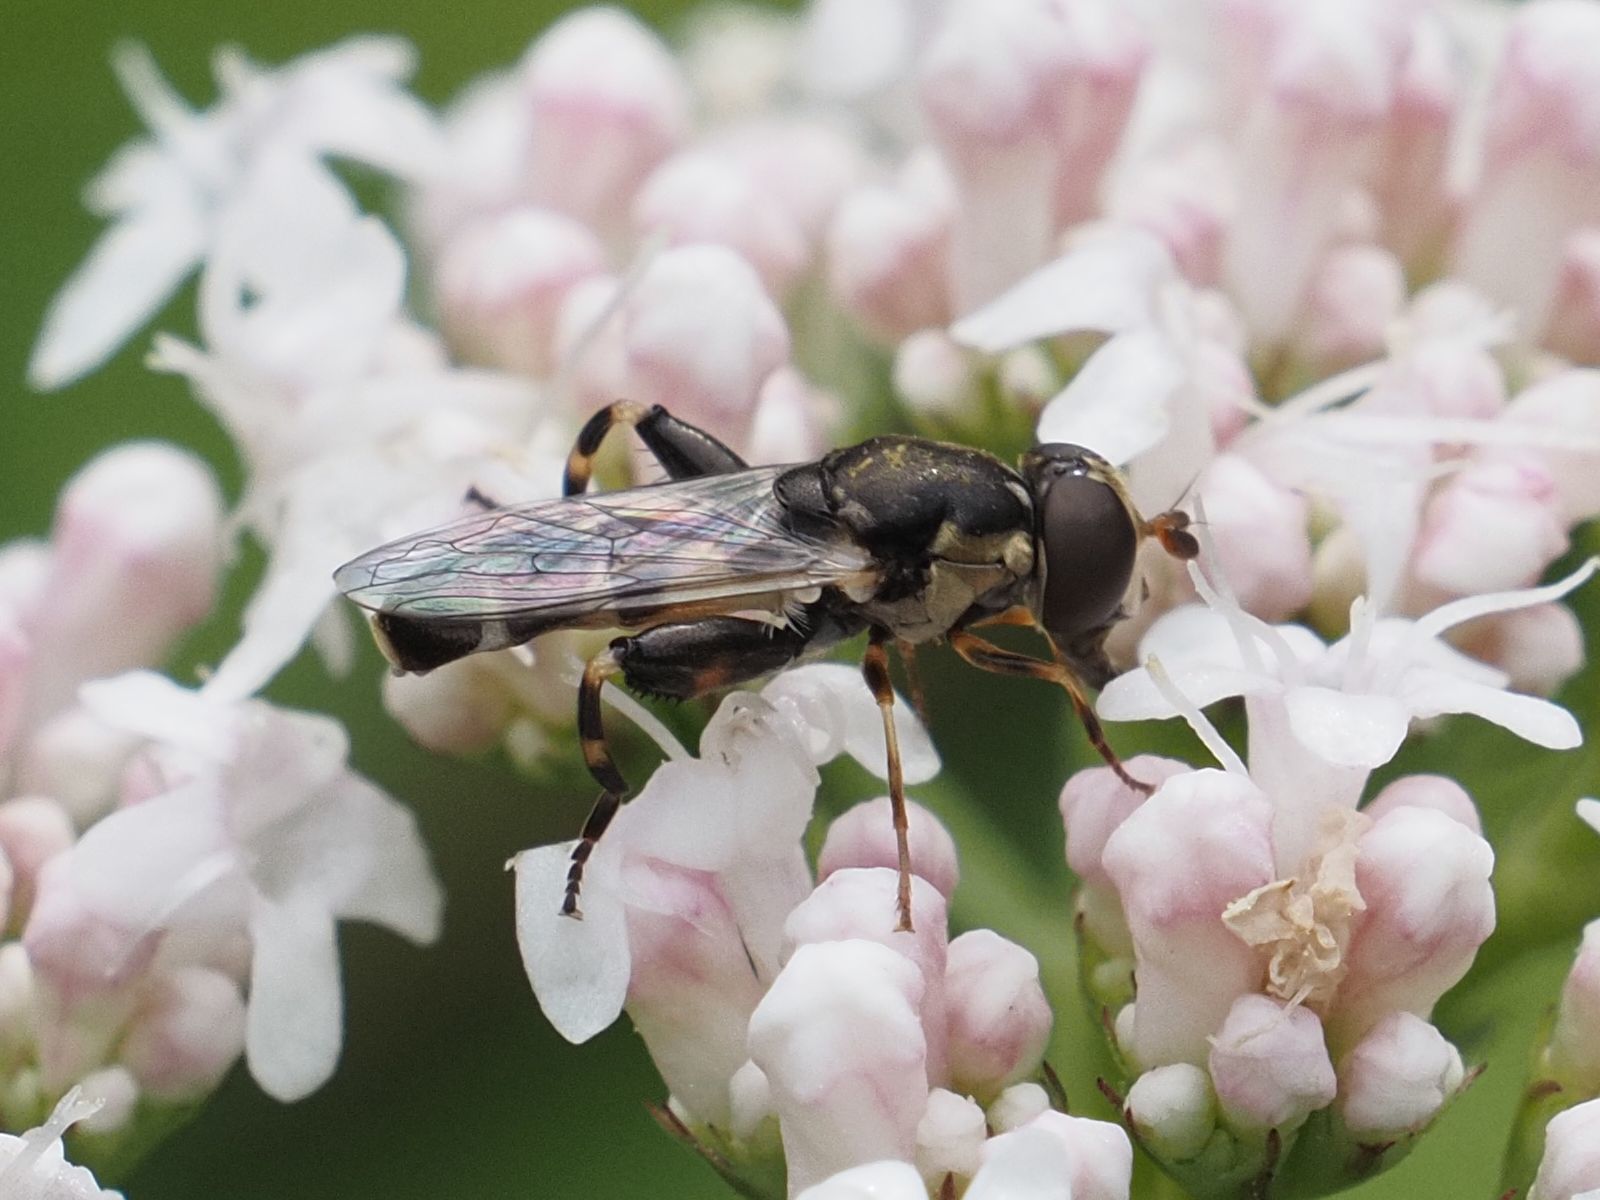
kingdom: Animalia
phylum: Arthropoda
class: Insecta
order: Diptera
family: Syrphidae
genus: Syritta
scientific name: Syritta pipiens
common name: Hover fly
